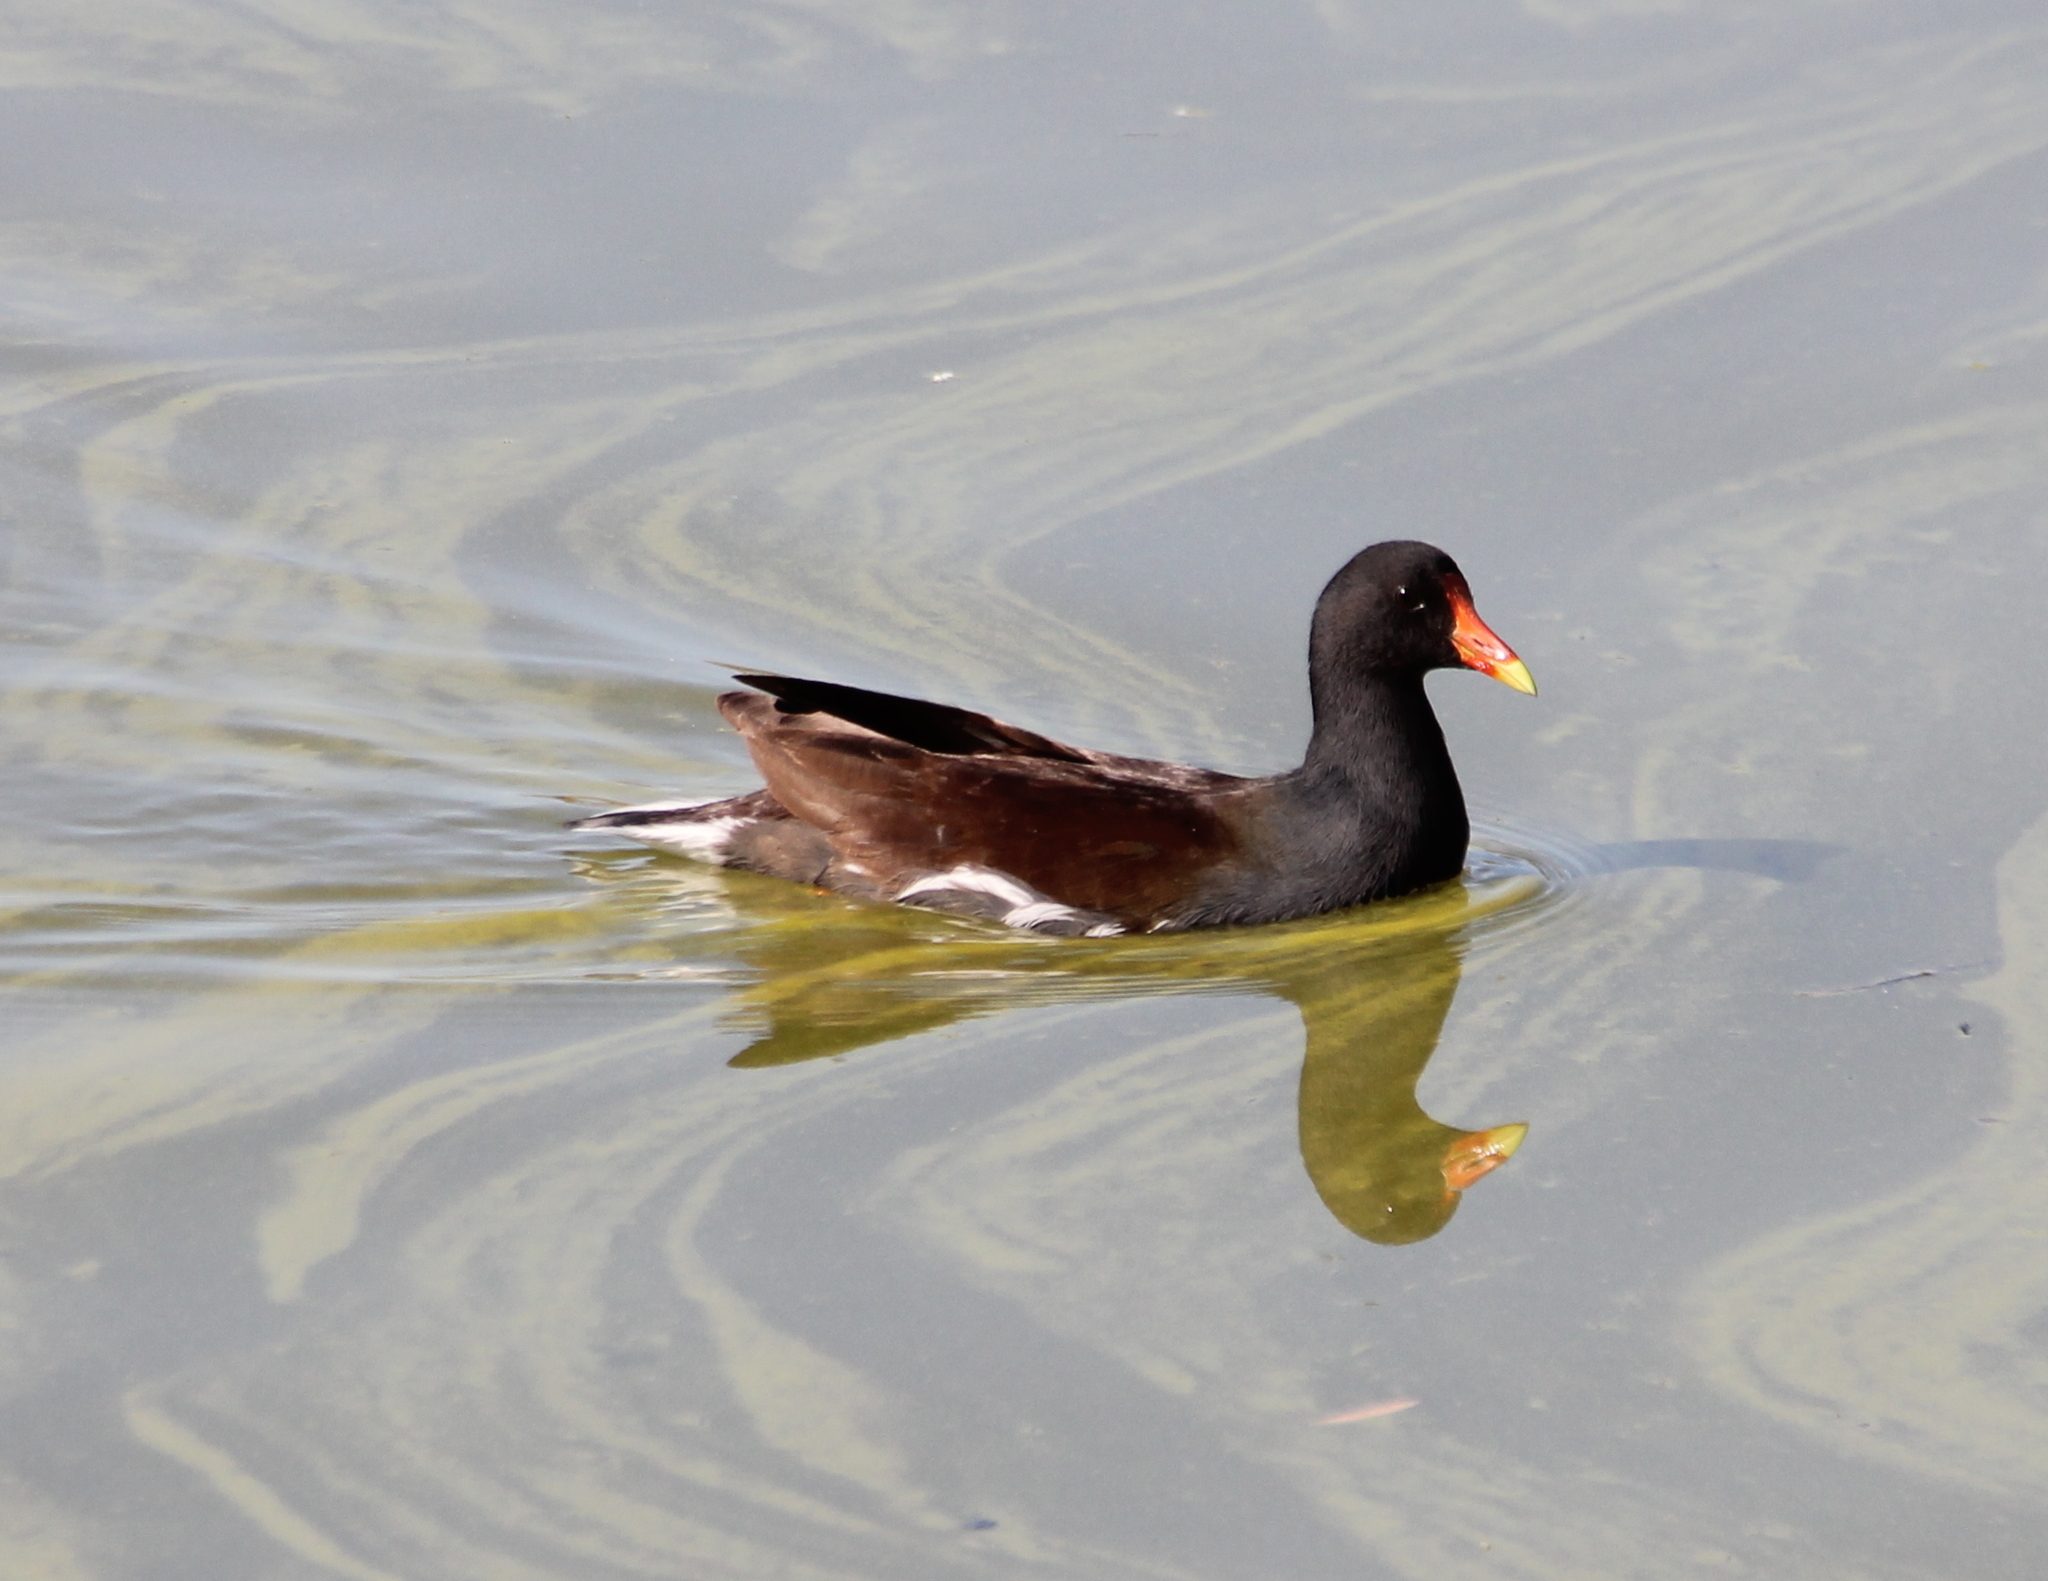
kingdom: Animalia
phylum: Chordata
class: Aves
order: Gruiformes
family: Rallidae
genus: Gallinula
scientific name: Gallinula chloropus
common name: Common moorhen
